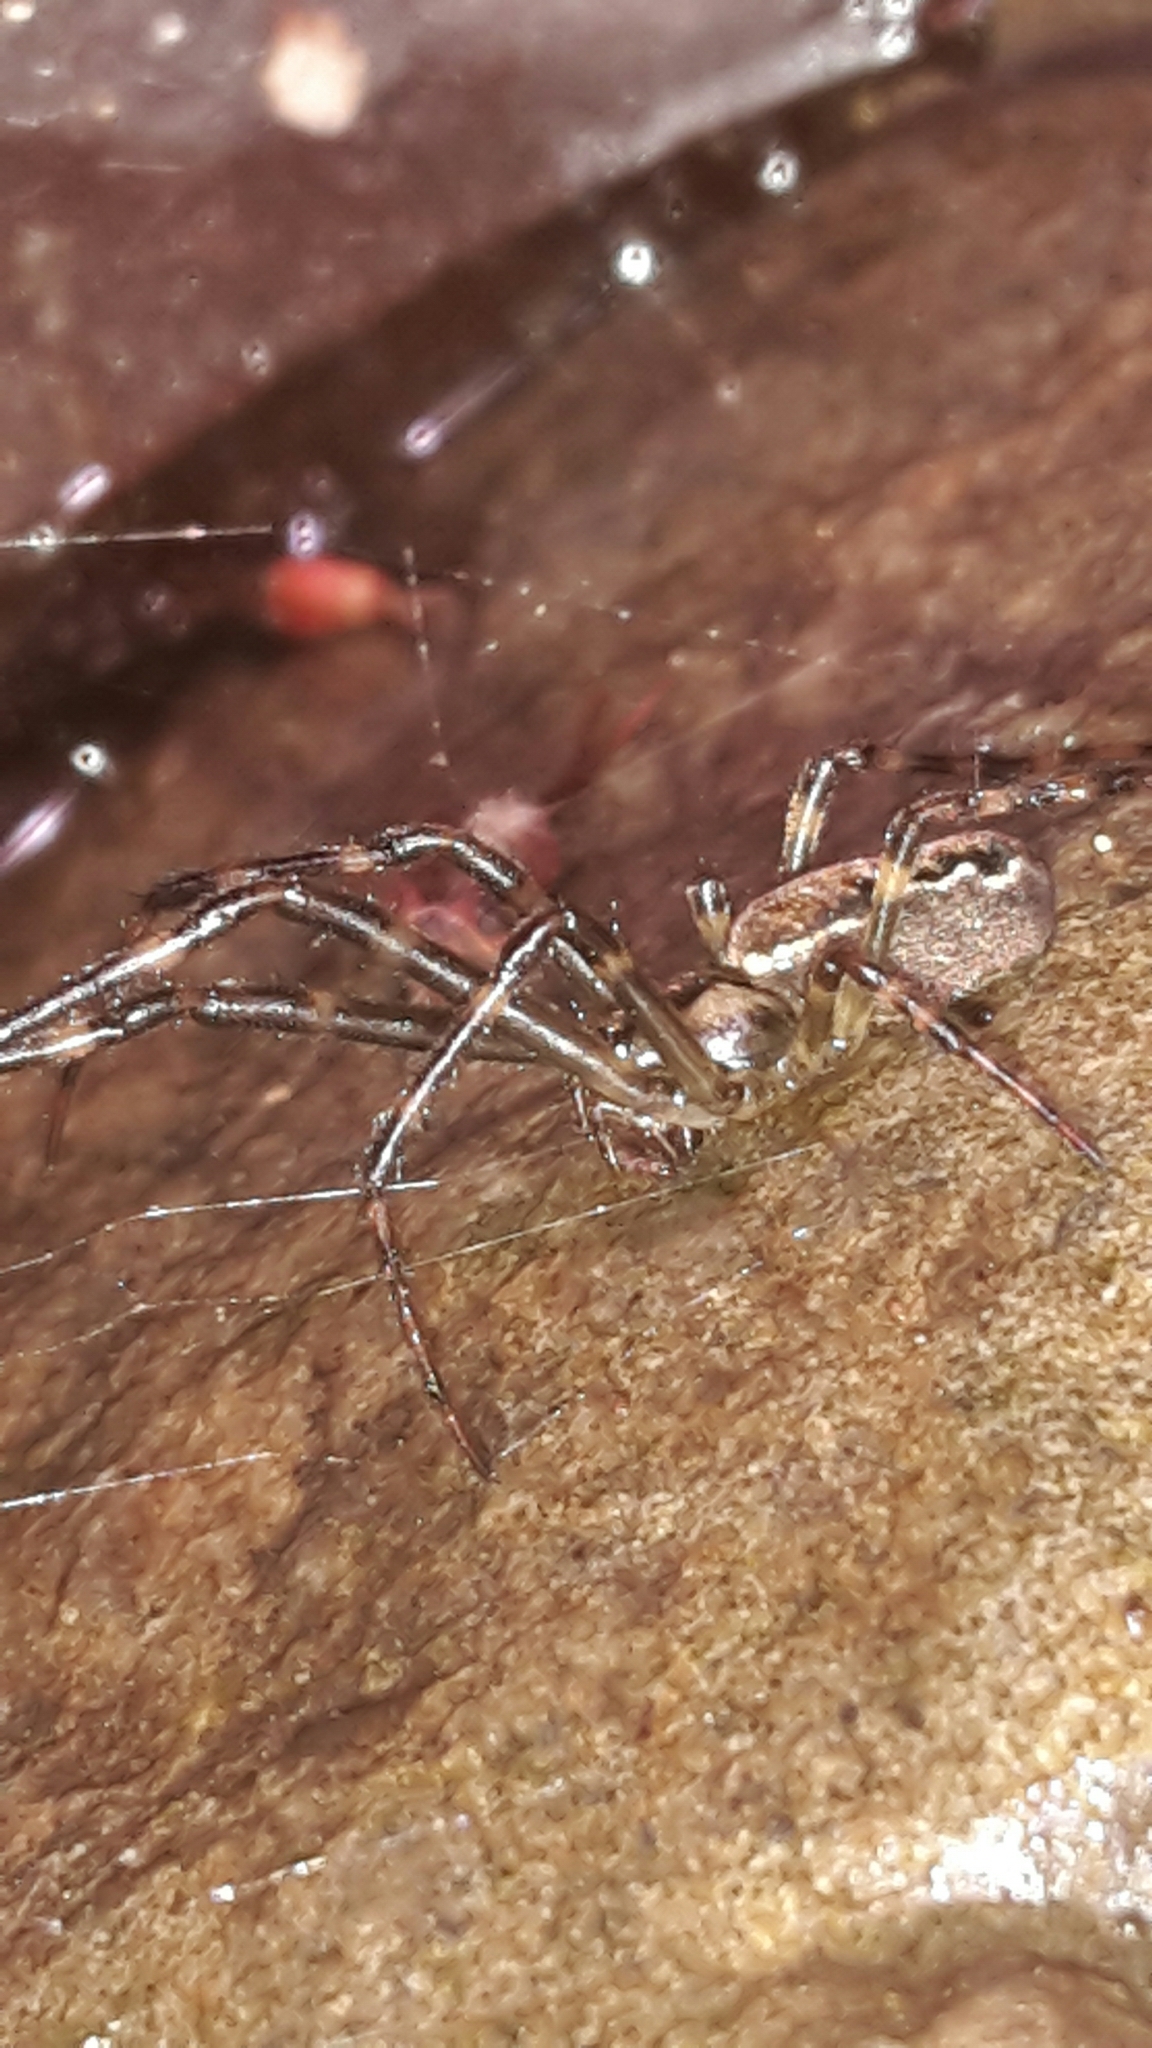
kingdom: Animalia
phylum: Arthropoda
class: Arachnida
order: Araneae
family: Tetragnathidae
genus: Nanometa
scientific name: Nanometa lagenifera
